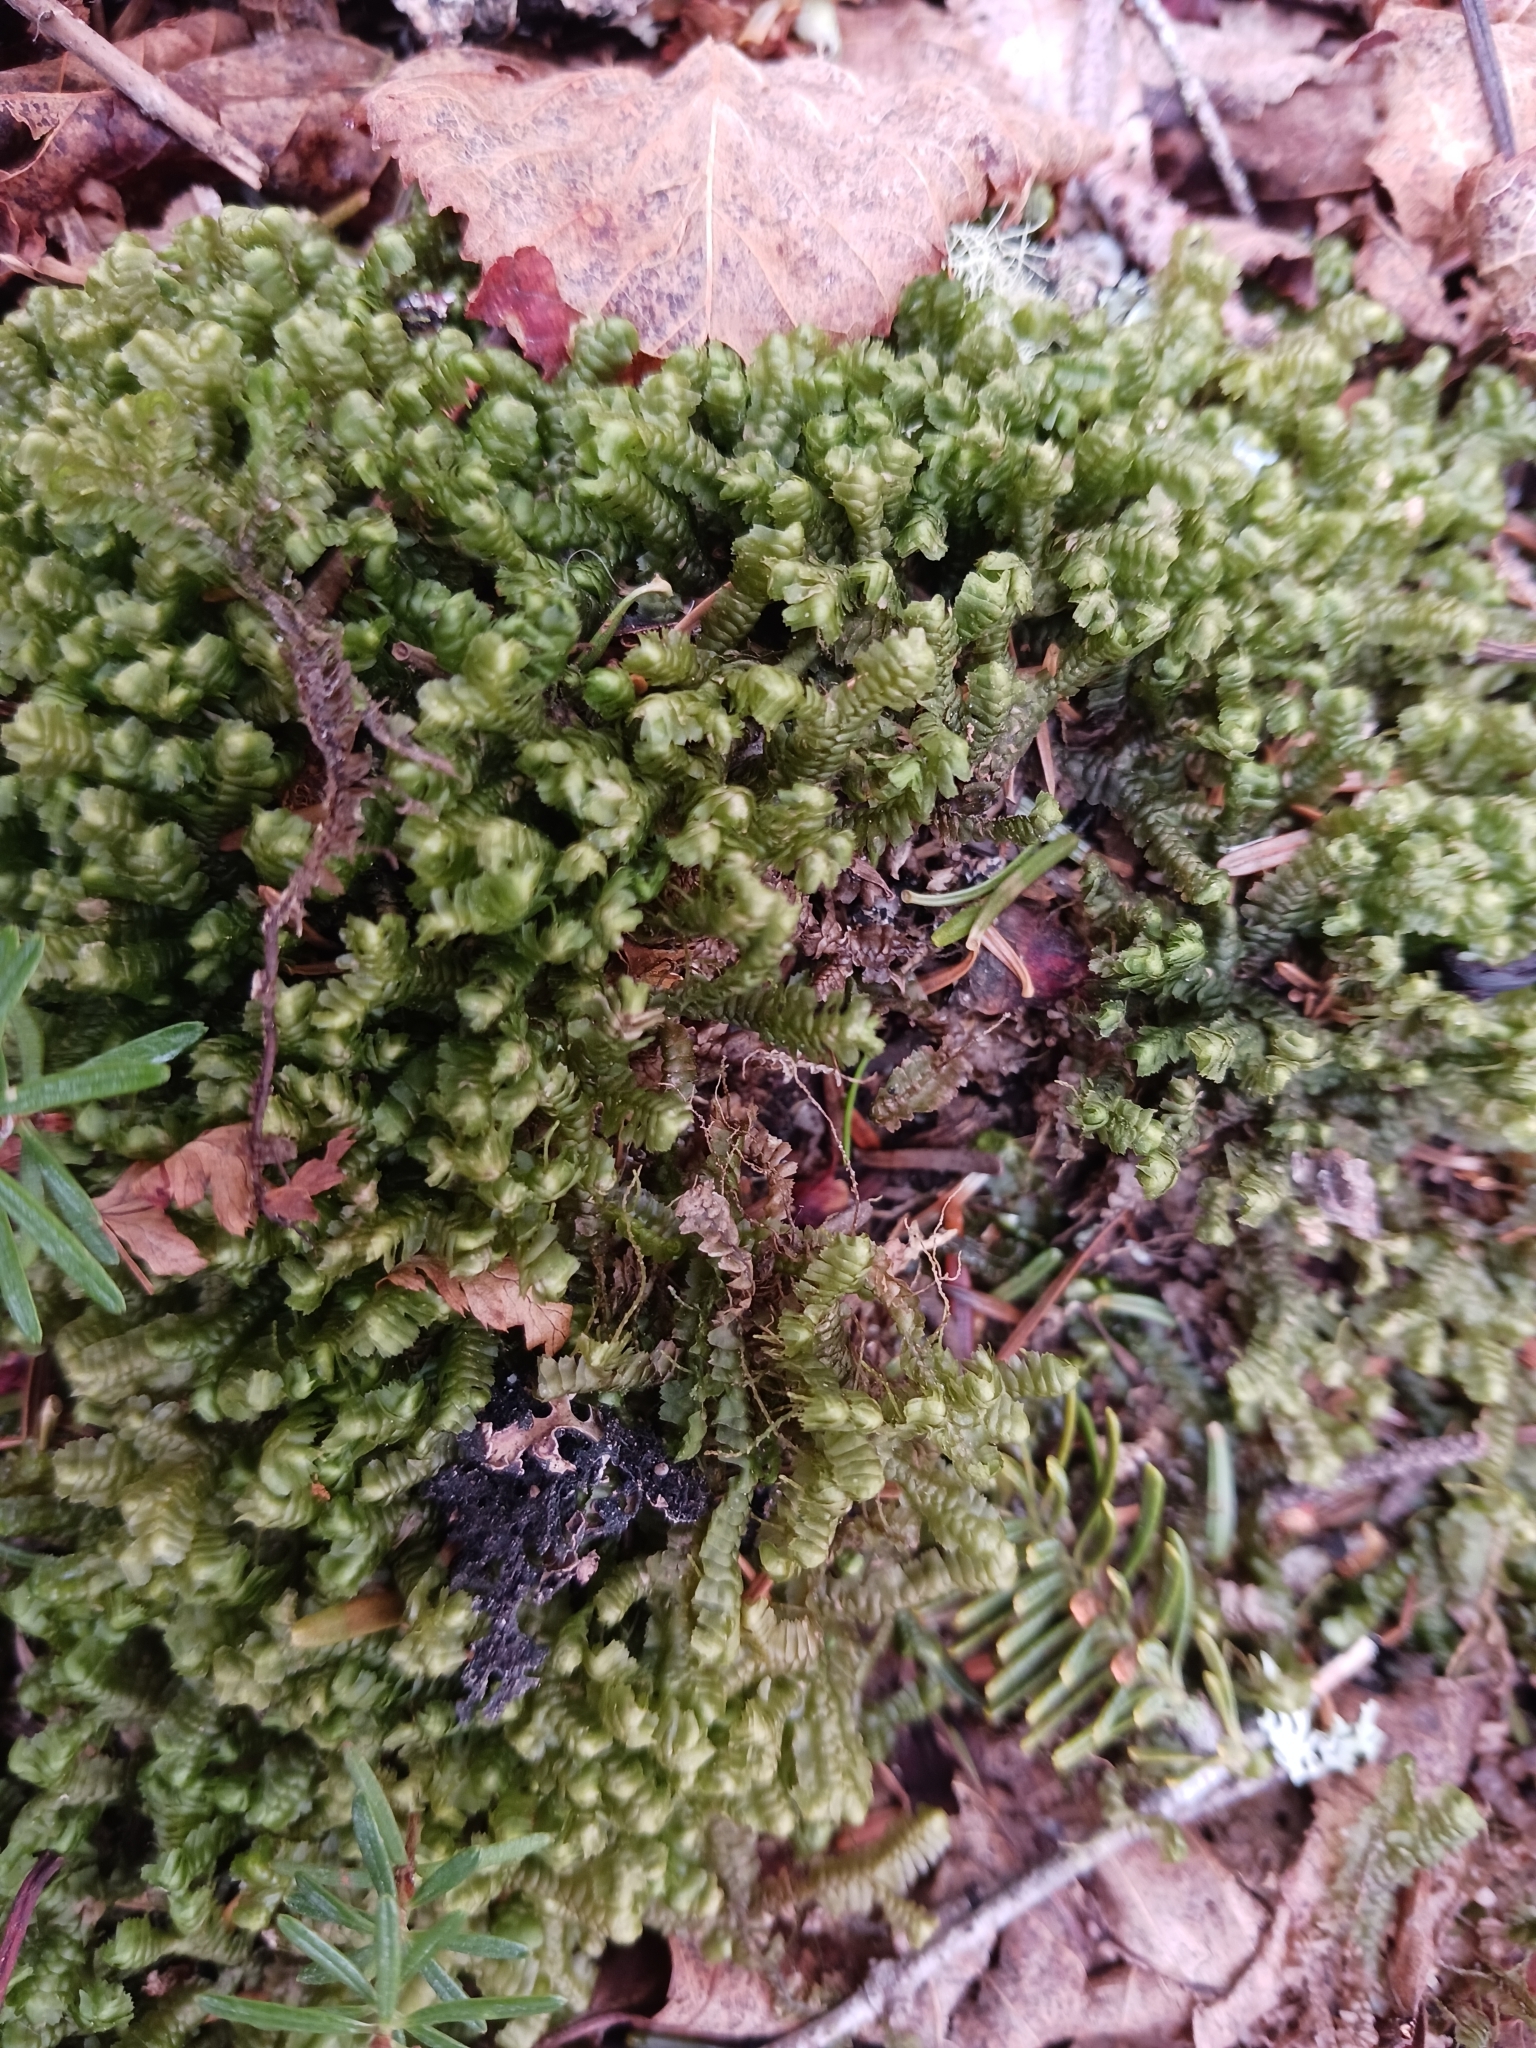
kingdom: Plantae
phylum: Marchantiophyta
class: Jungermanniopsida
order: Jungermanniales
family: Lepidoziaceae
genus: Bazzania
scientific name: Bazzania trilobata
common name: Three-lobed whipwort
